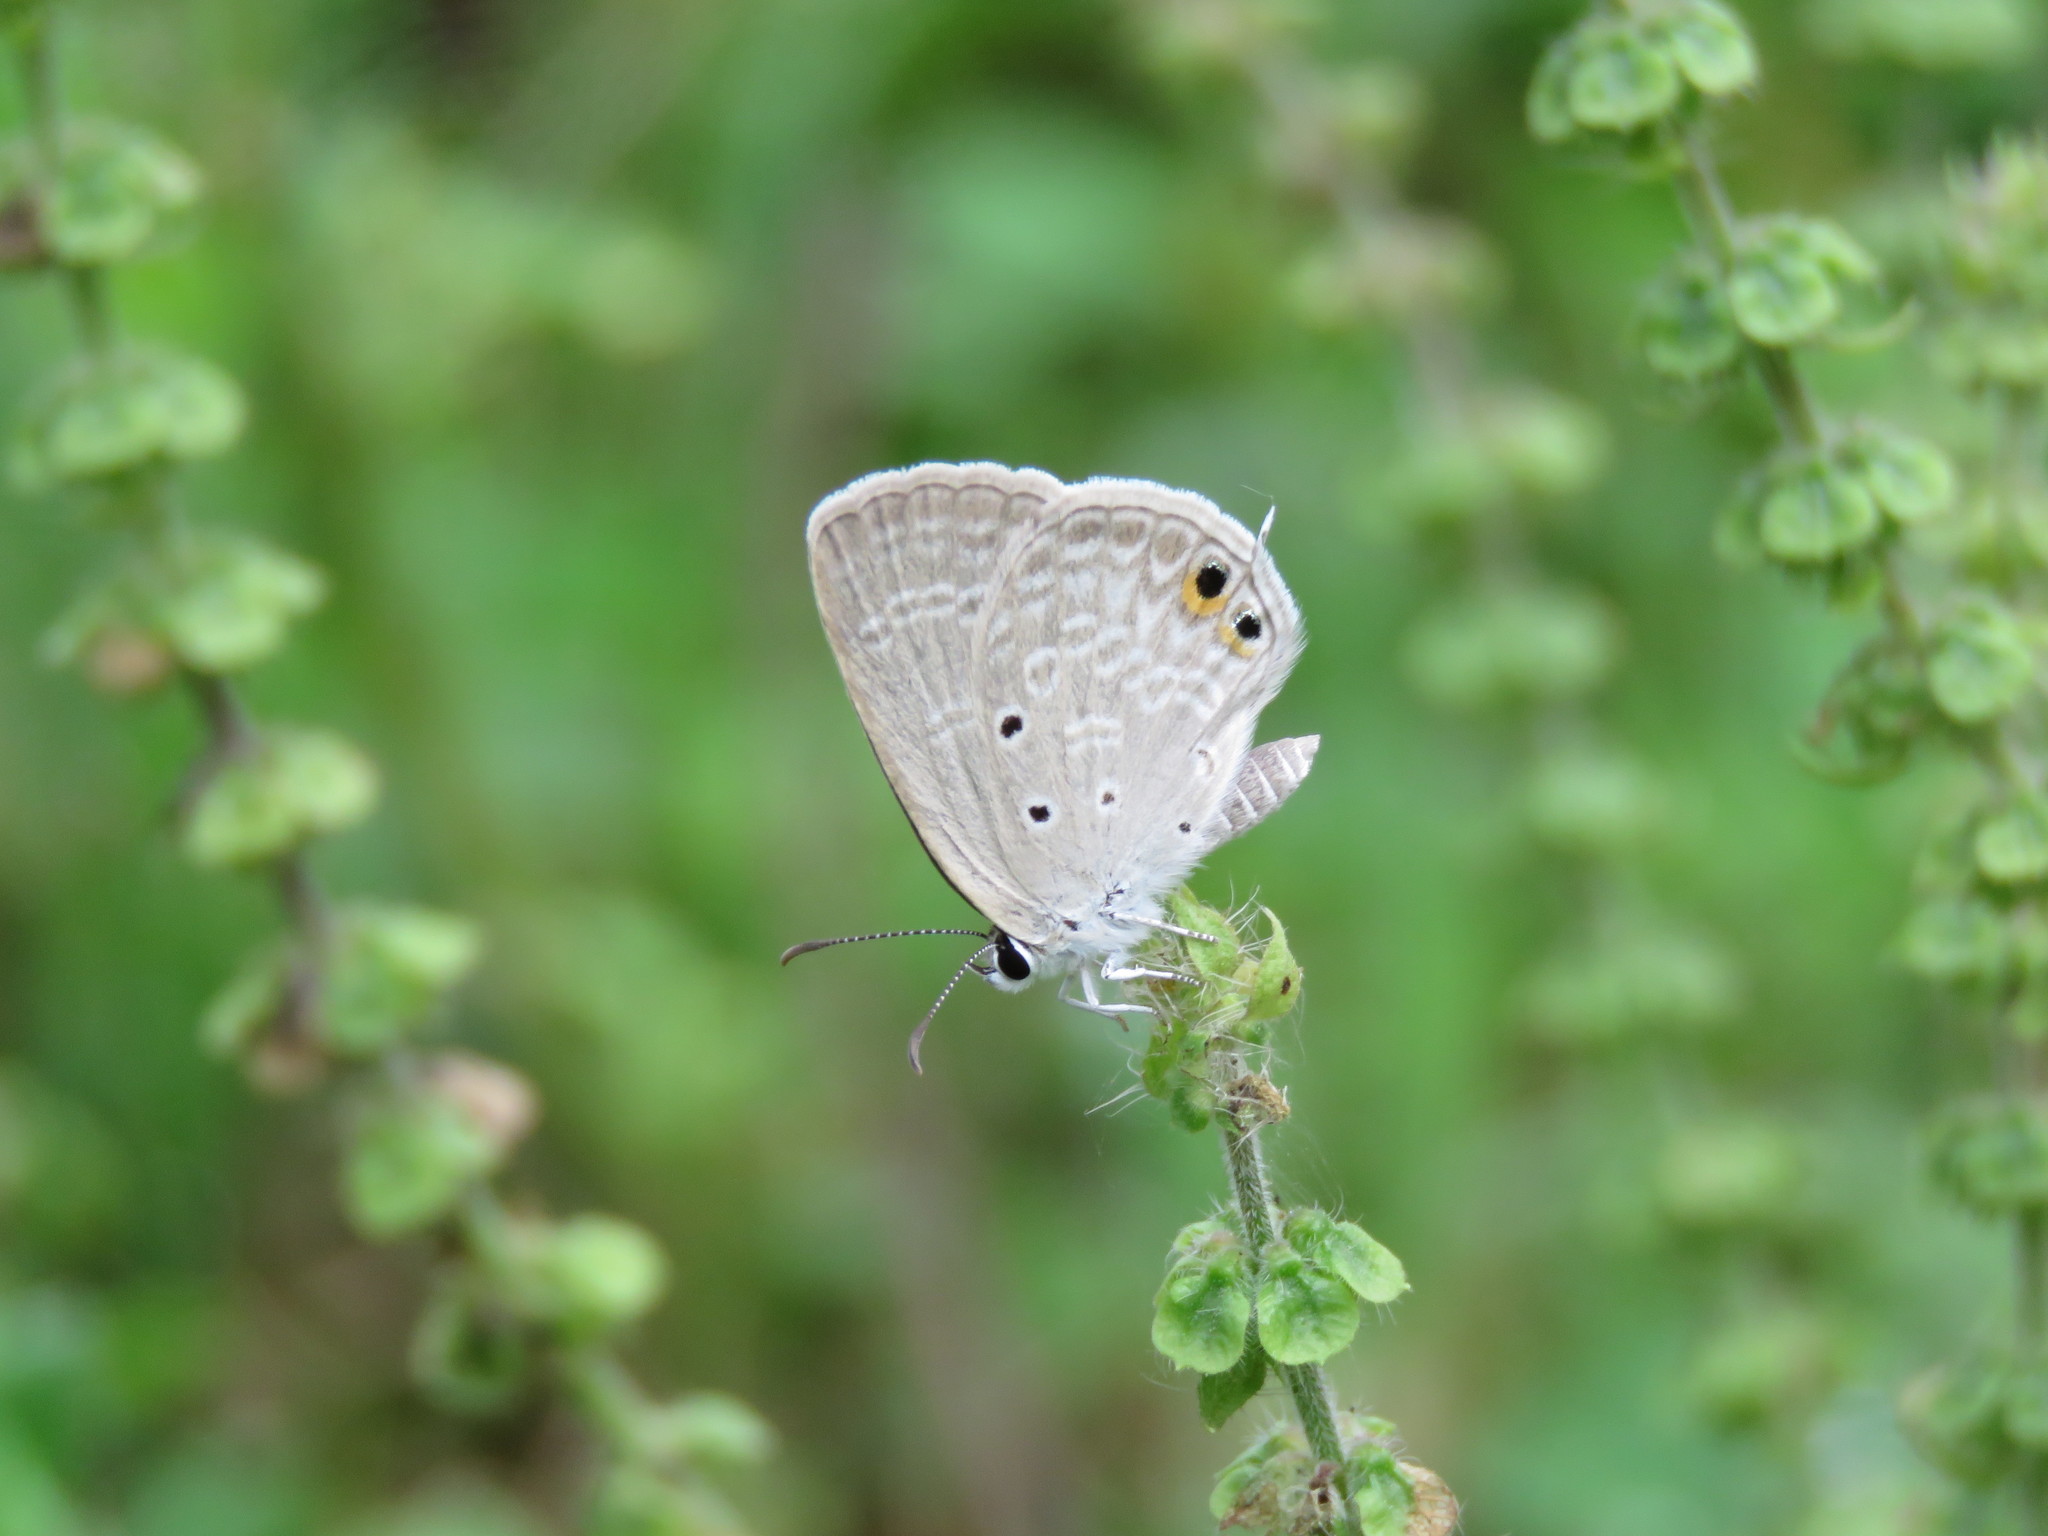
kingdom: Animalia
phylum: Arthropoda
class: Insecta
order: Lepidoptera
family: Lycaenidae
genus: Euchrysops
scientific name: Euchrysops cnejus
